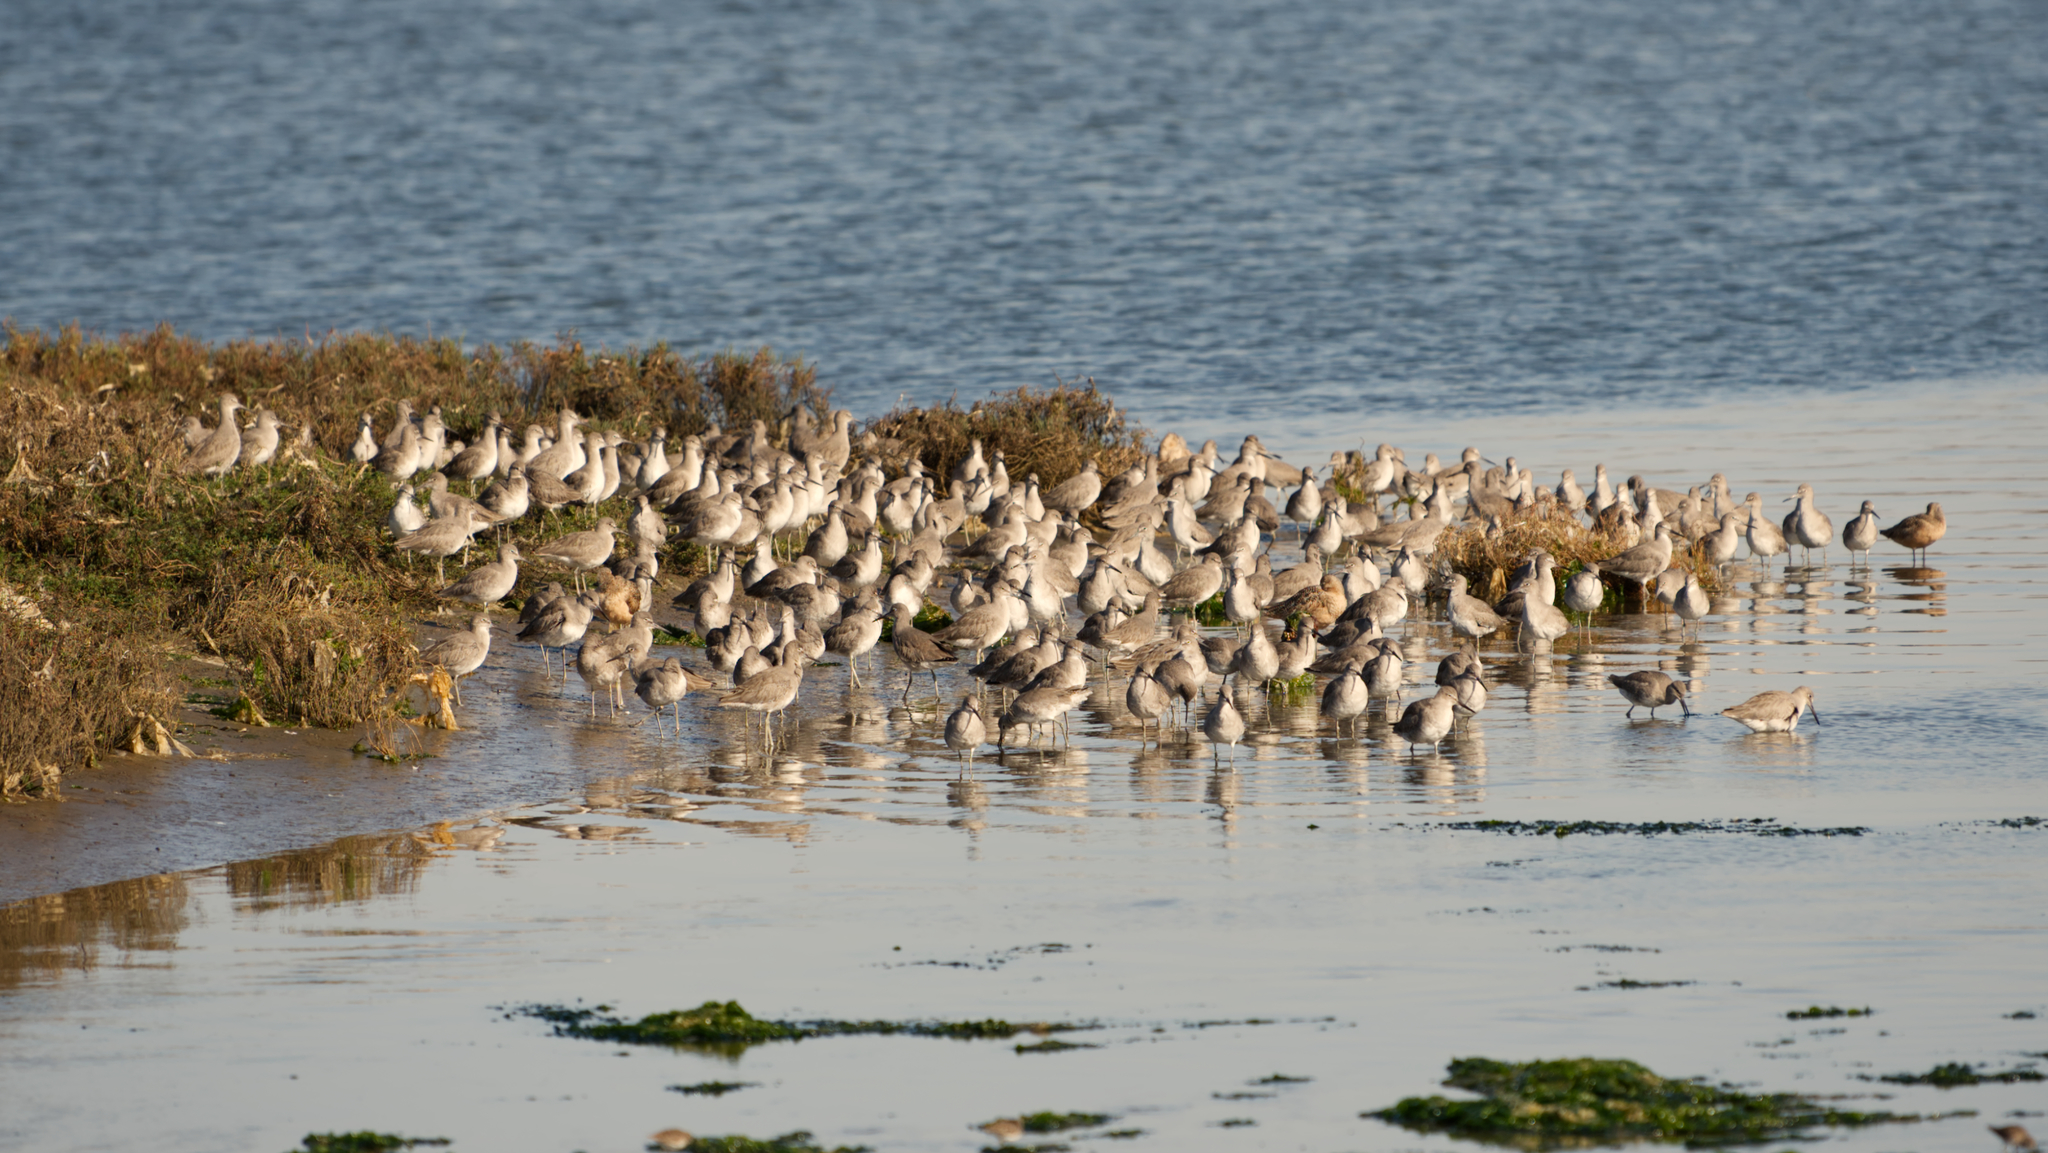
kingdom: Animalia
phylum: Chordata
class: Aves
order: Charadriiformes
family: Scolopacidae
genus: Tringa
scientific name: Tringa semipalmata
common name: Willet
